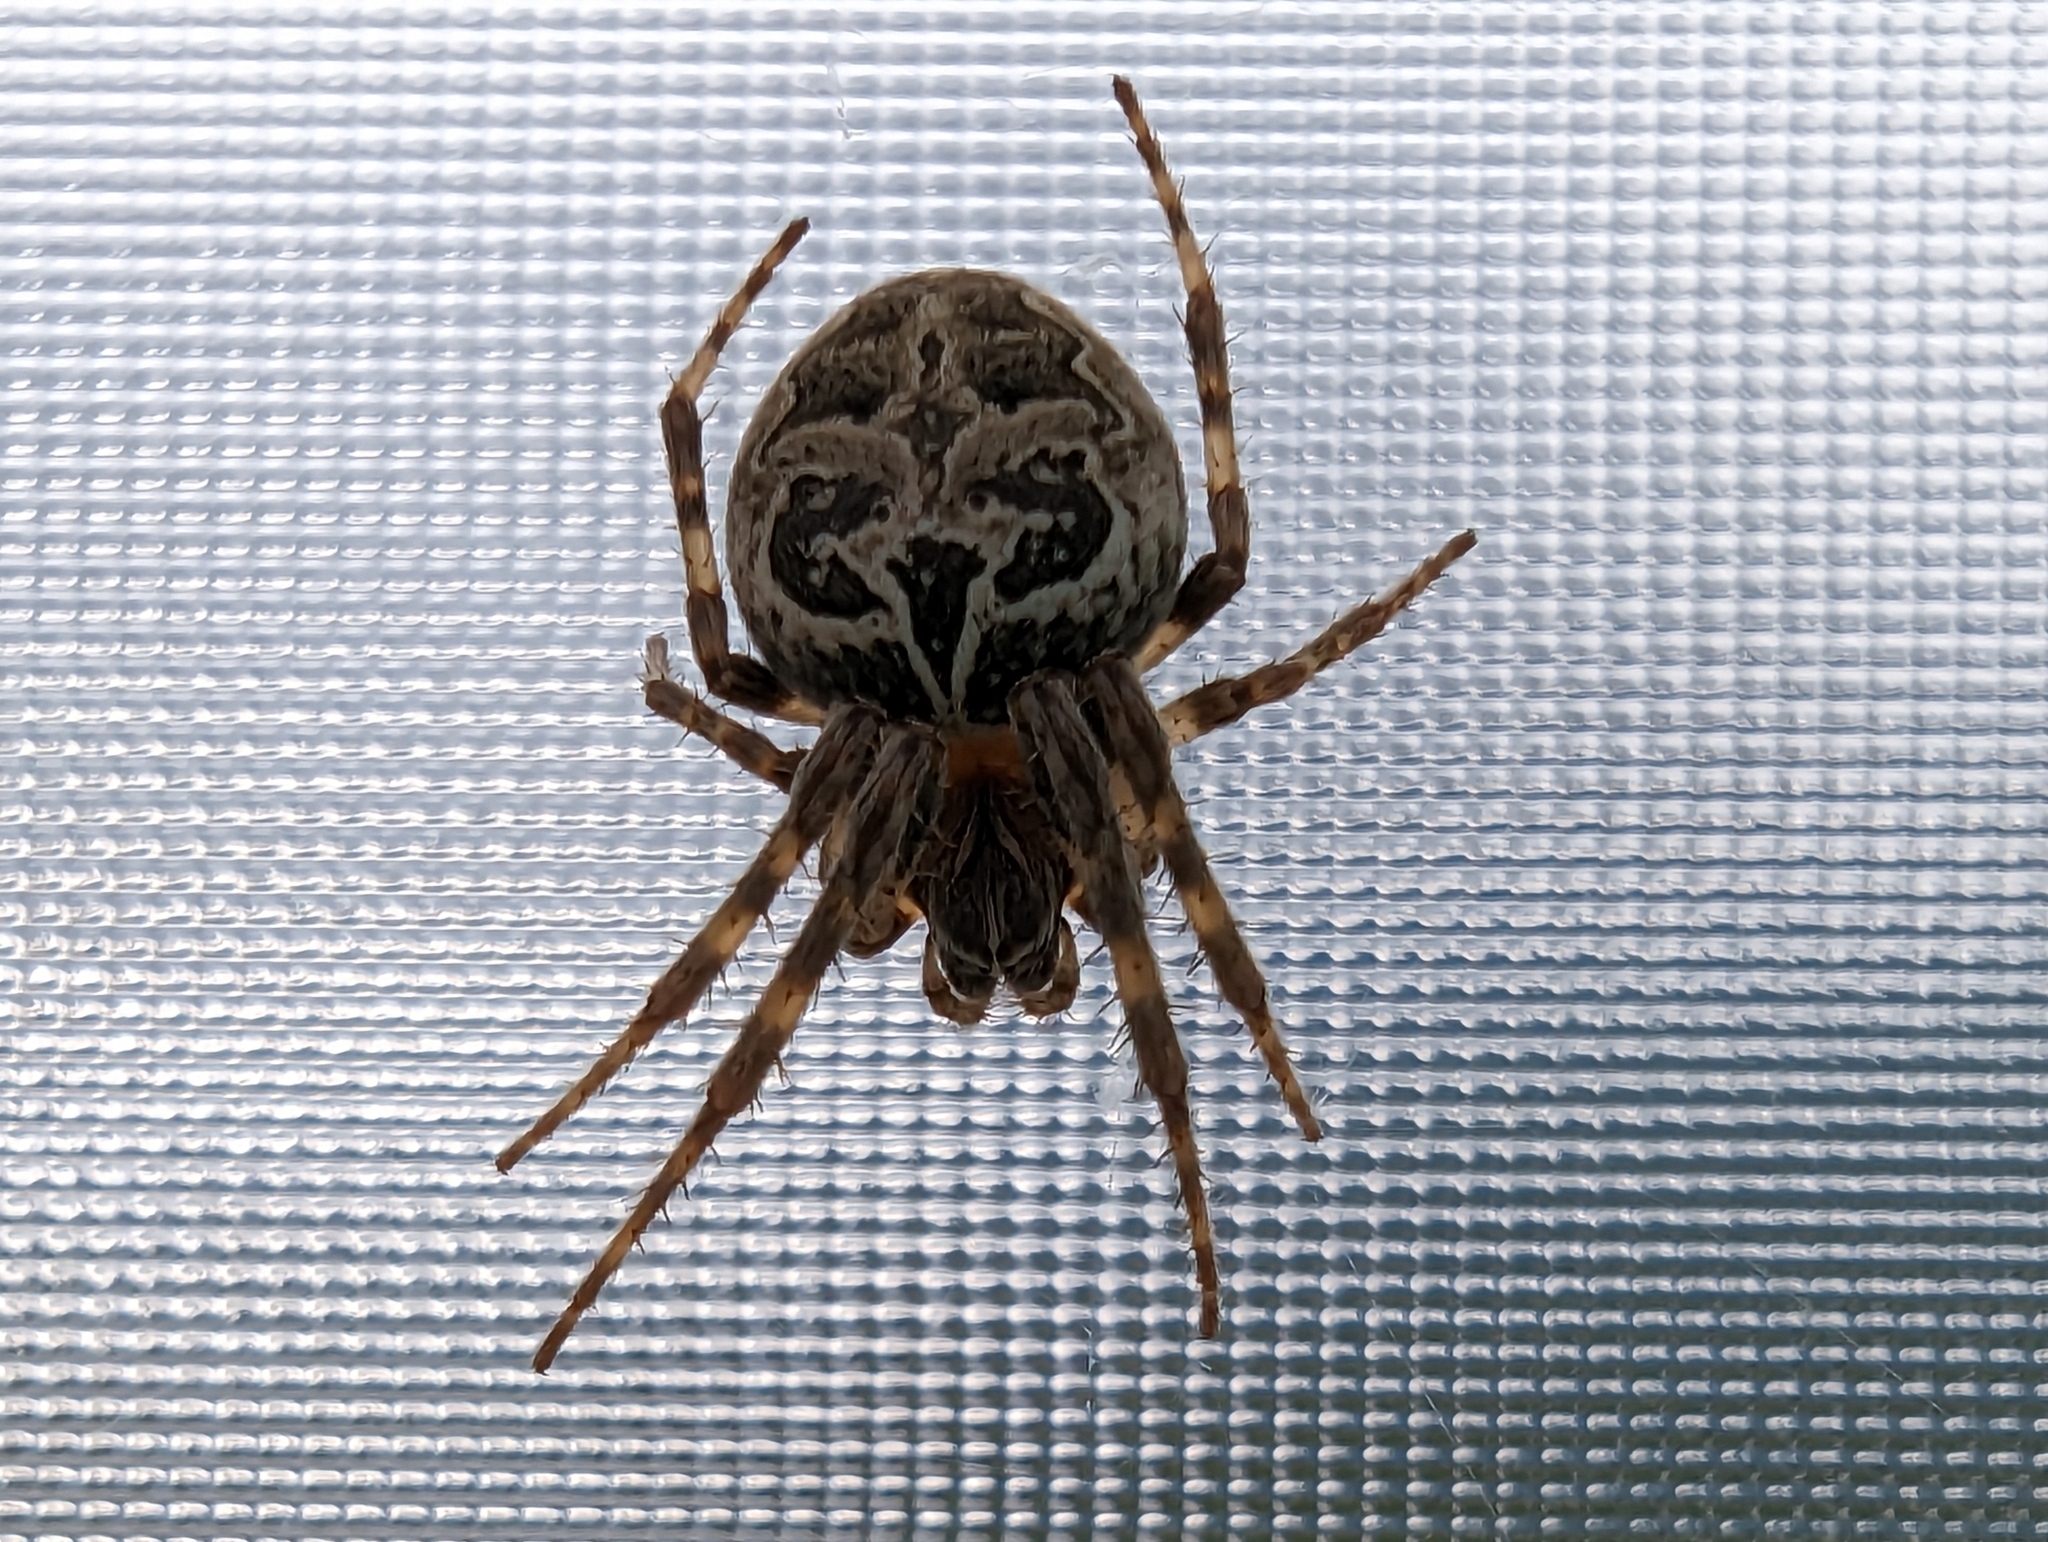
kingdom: Animalia
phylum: Arthropoda
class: Arachnida
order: Araneae
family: Araneidae
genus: Larinioides
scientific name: Larinioides sclopetarius
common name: Bridge orbweaver
